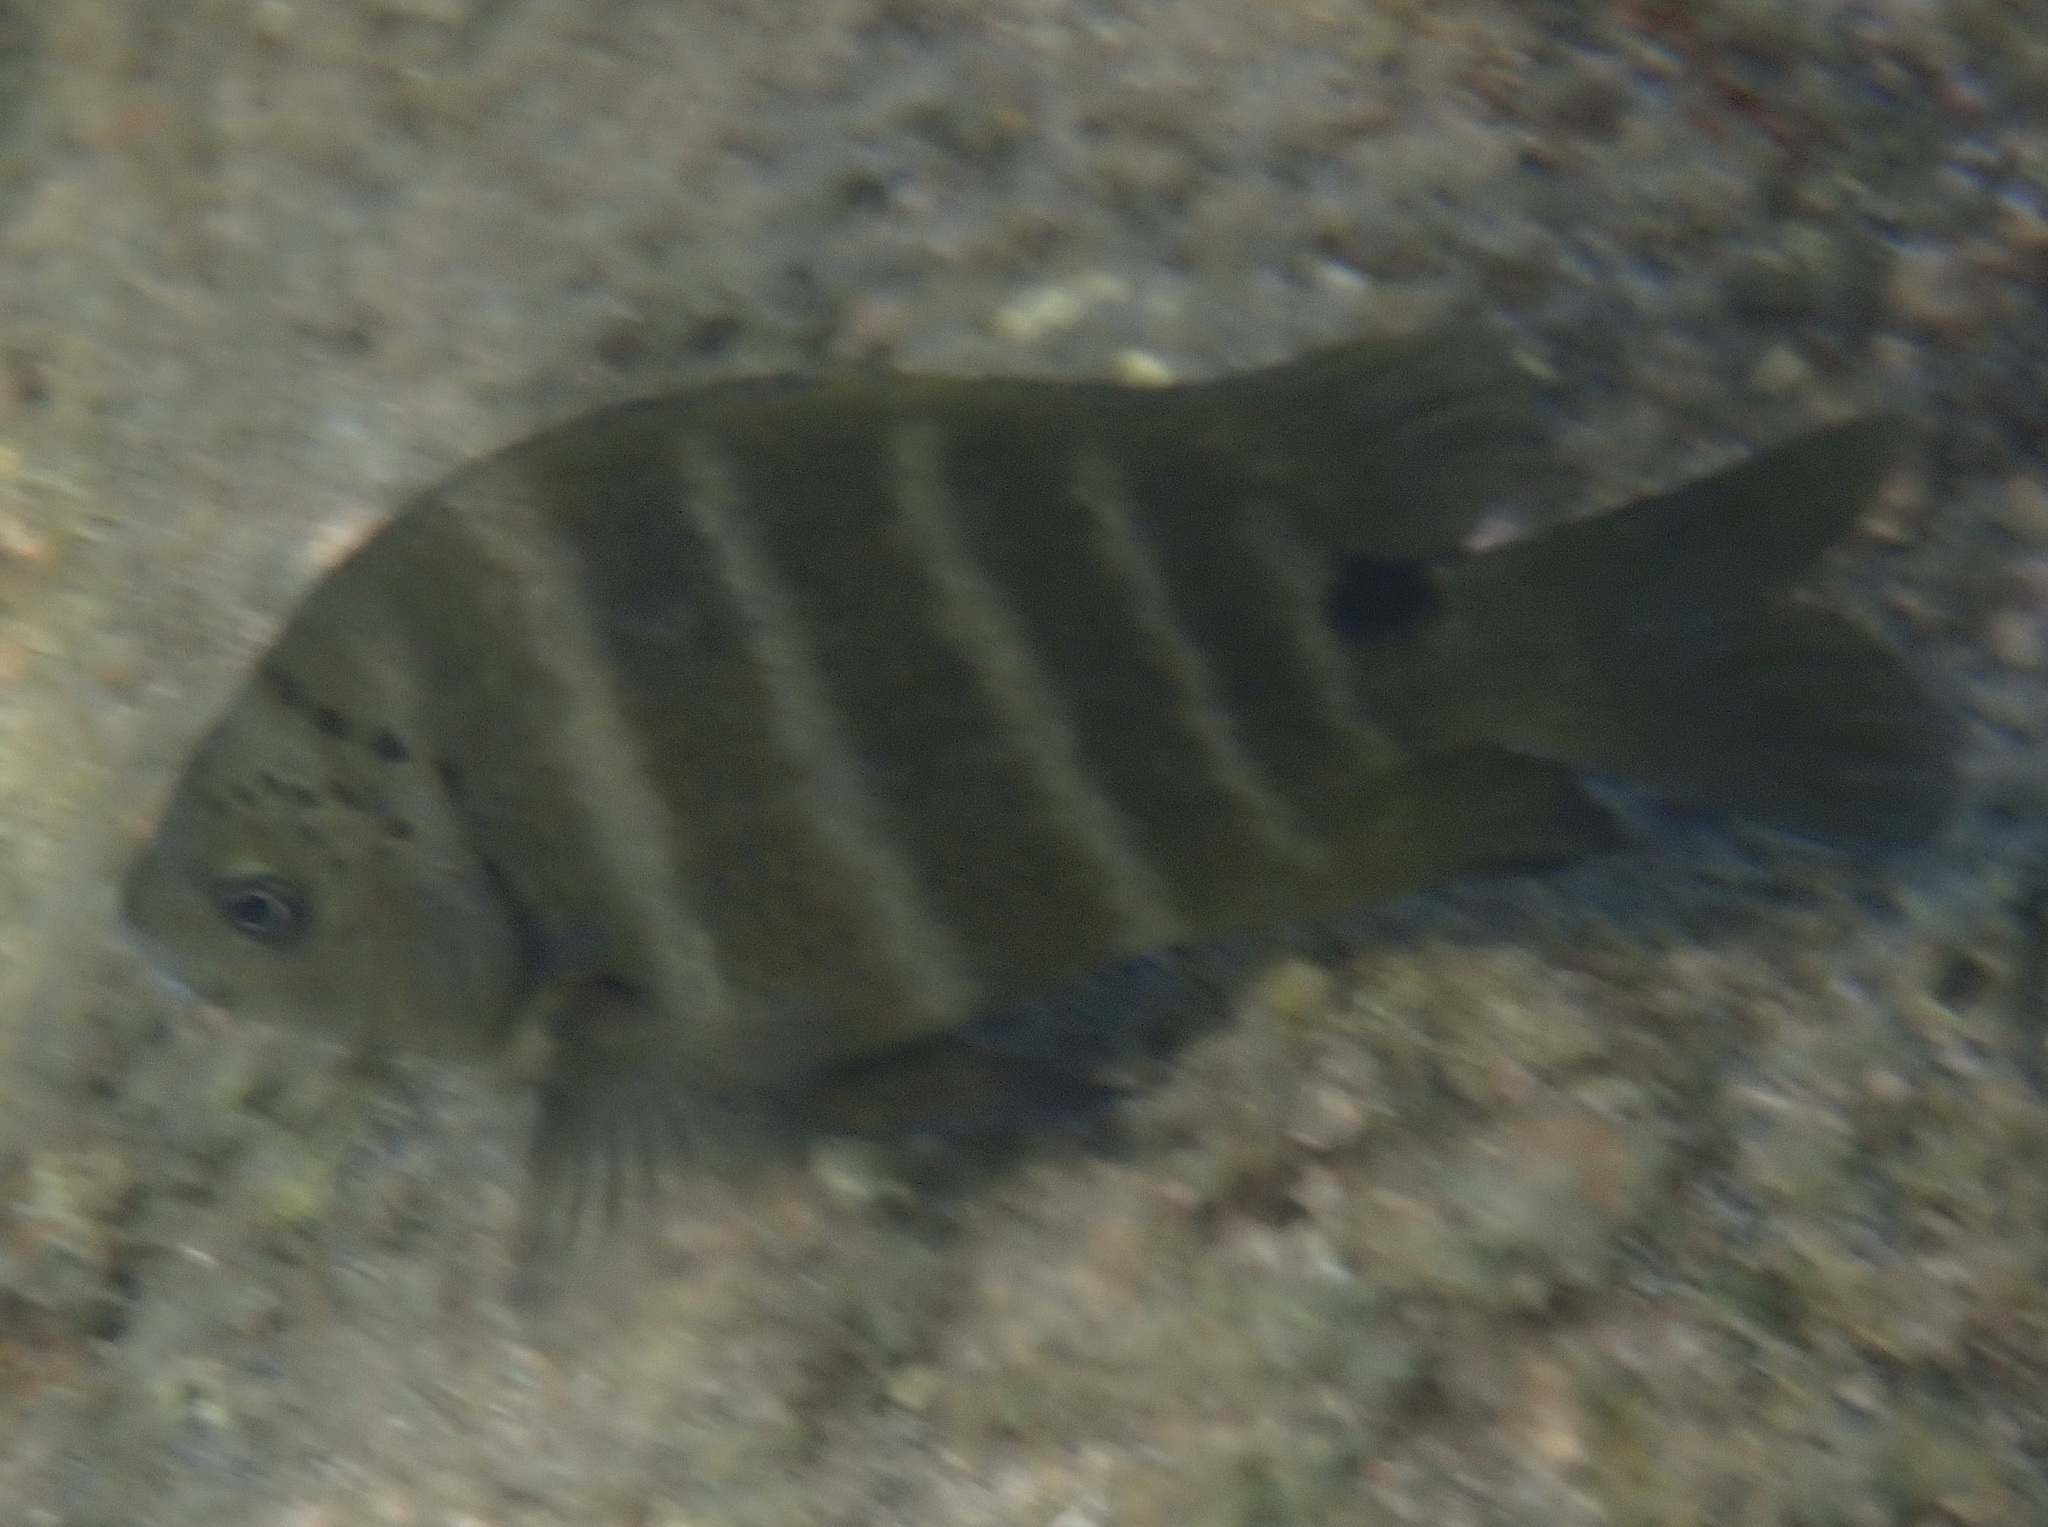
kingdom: Animalia
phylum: Chordata
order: Perciformes
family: Pomacentridae
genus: Abudefduf
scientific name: Abudefduf sordidus
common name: Blackspot sergeant
